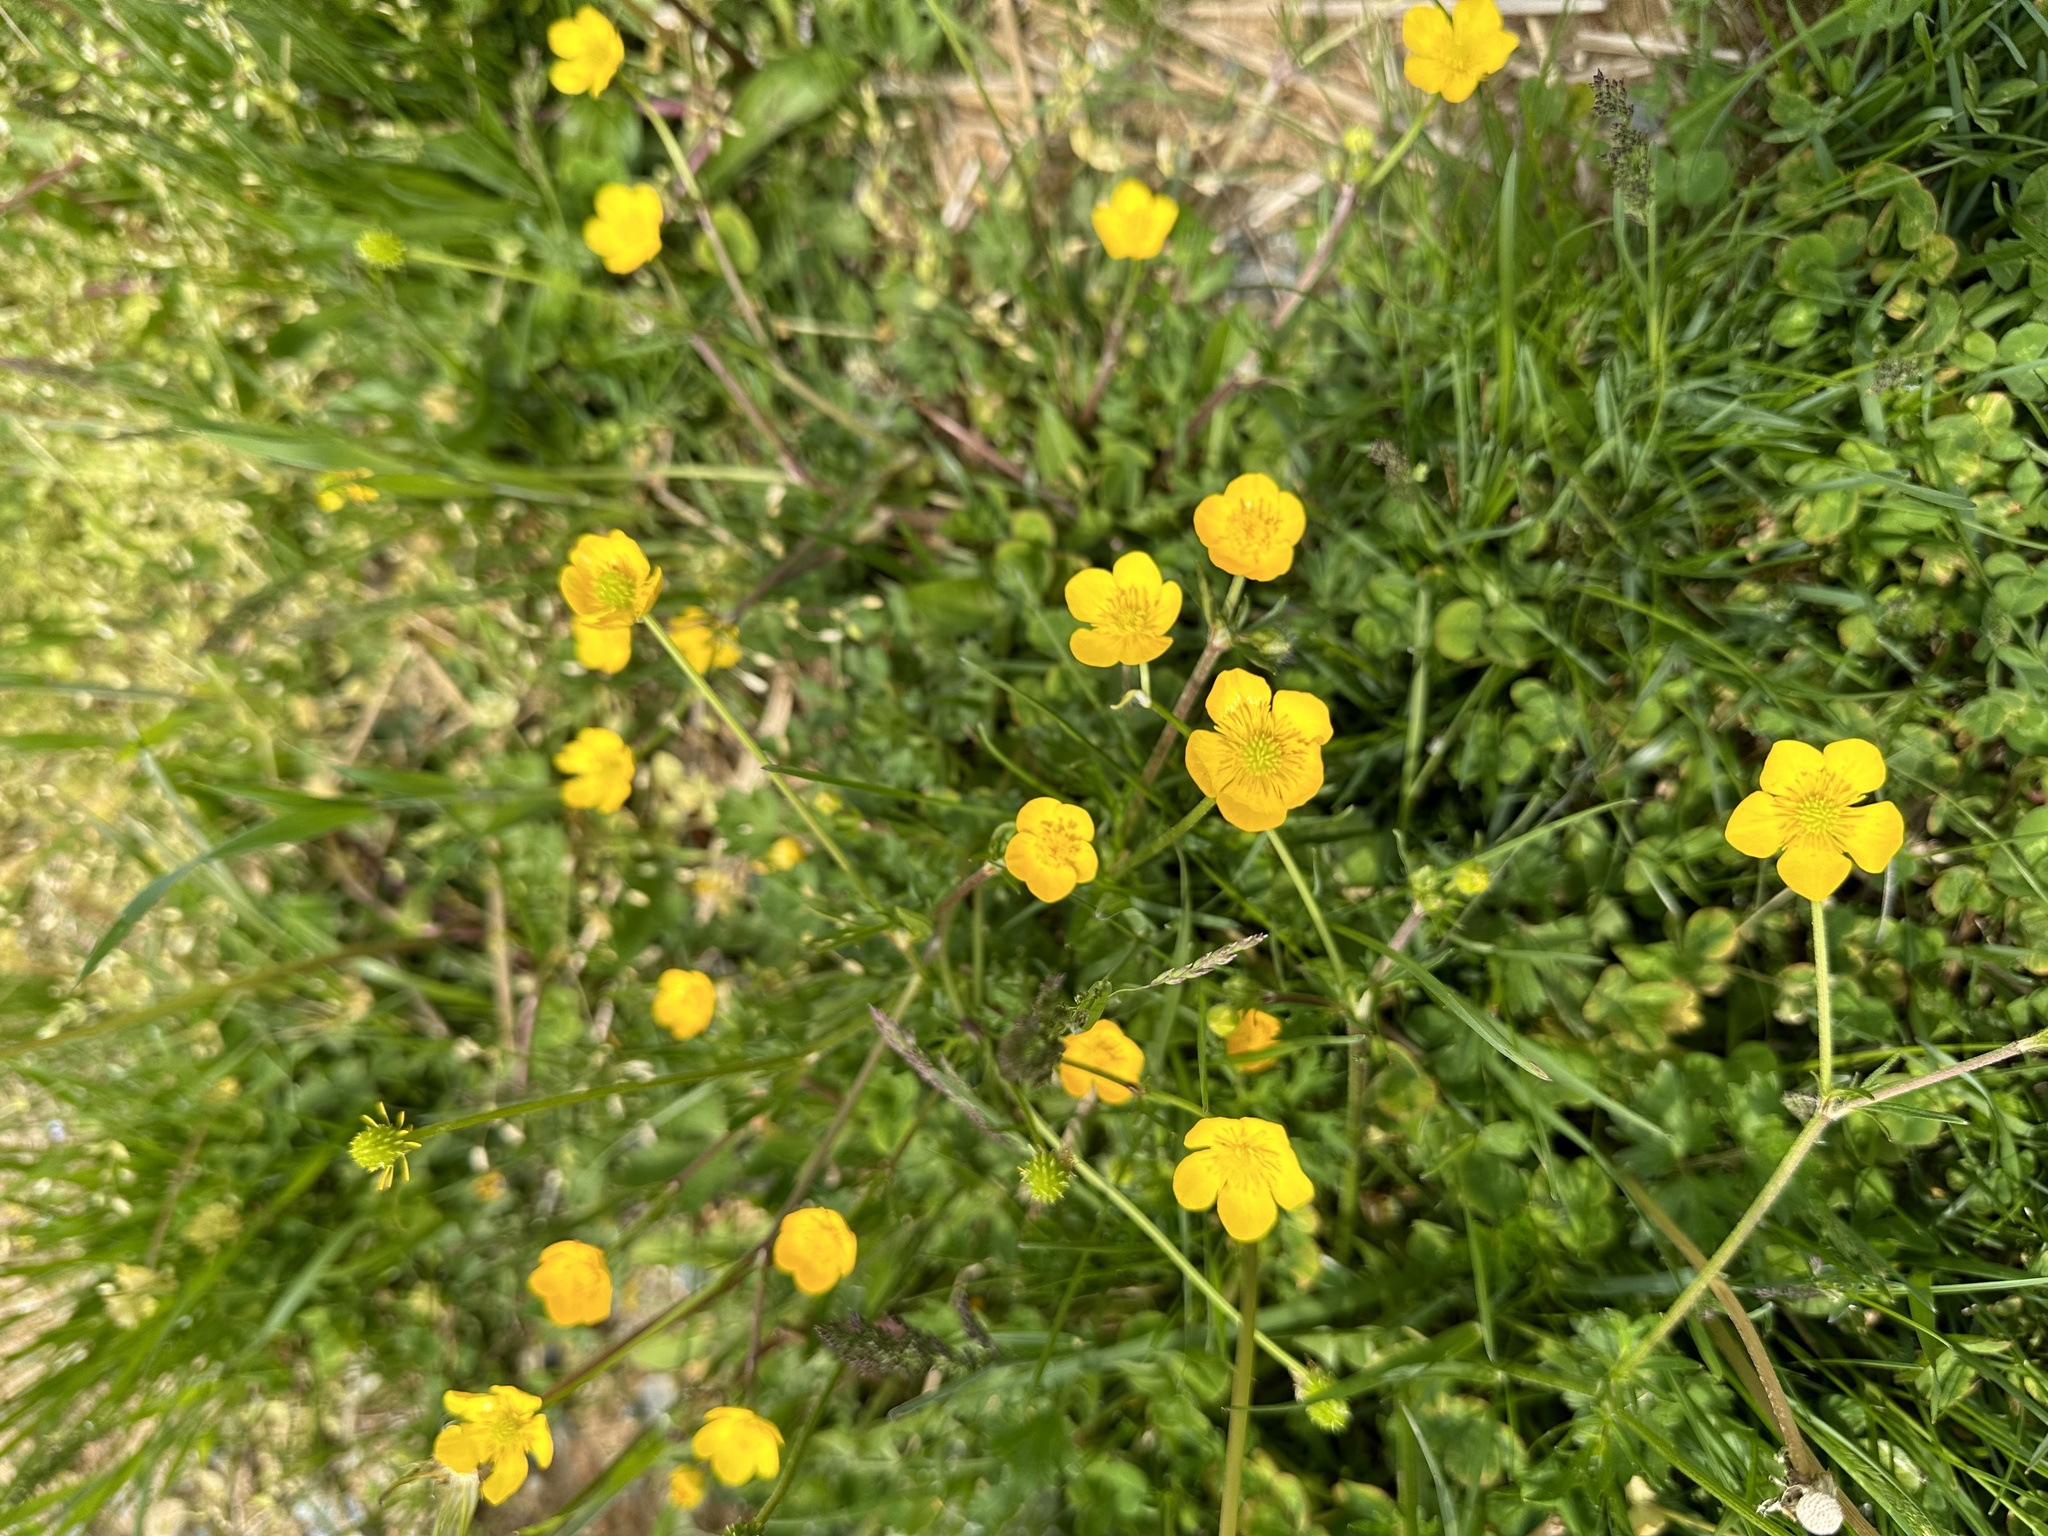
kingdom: Plantae
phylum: Tracheophyta
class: Magnoliopsida
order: Ranunculales
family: Ranunculaceae
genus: Ranunculus
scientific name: Ranunculus bulbosus
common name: Bulbous buttercup
